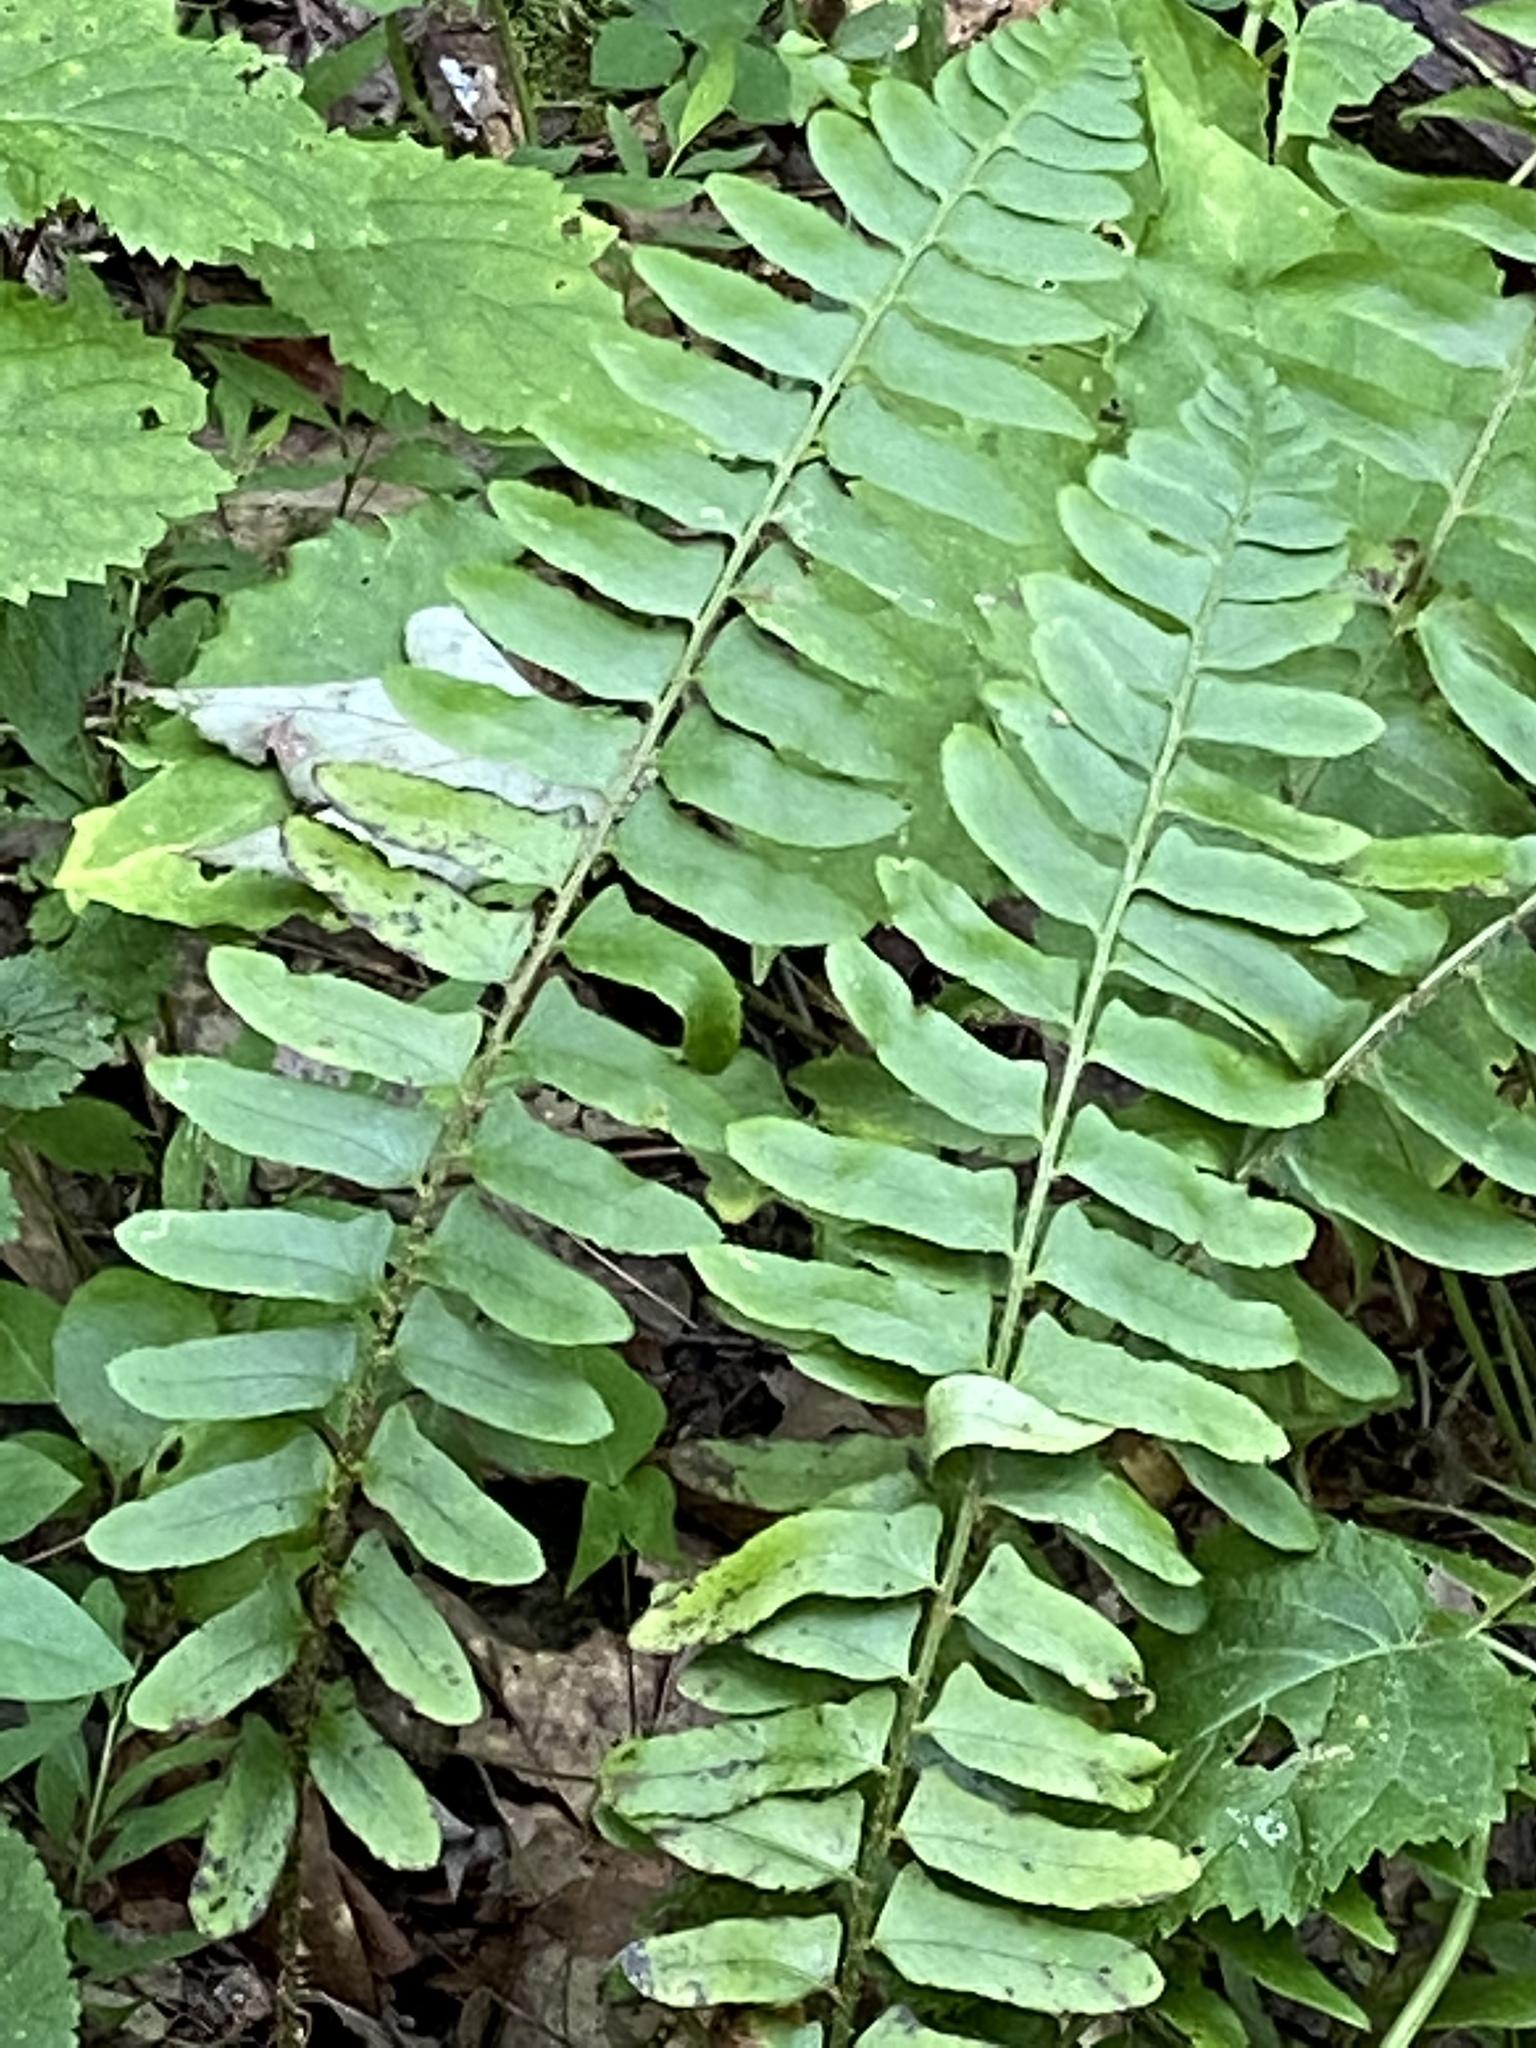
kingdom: Plantae
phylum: Tracheophyta
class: Polypodiopsida
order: Polypodiales
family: Dryopteridaceae
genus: Polystichum
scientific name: Polystichum acrostichoides
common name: Christmas fern
